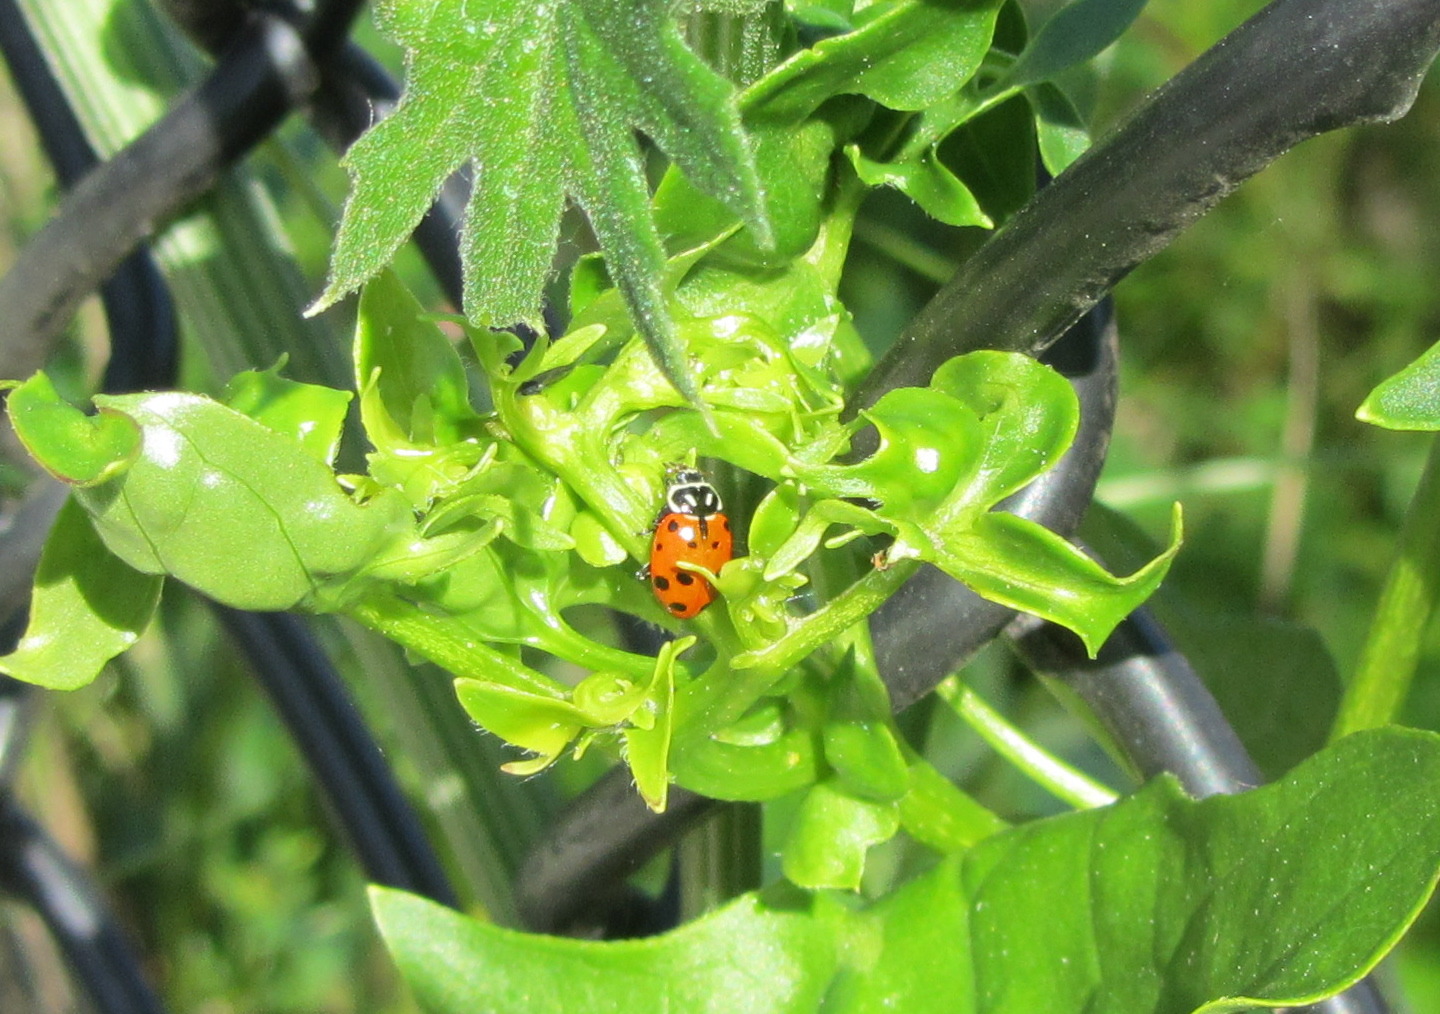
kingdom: Animalia
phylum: Arthropoda
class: Insecta
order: Coleoptera
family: Coccinellidae
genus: Hippodamia
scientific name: Hippodamia convergens
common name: Convergent lady beetle
